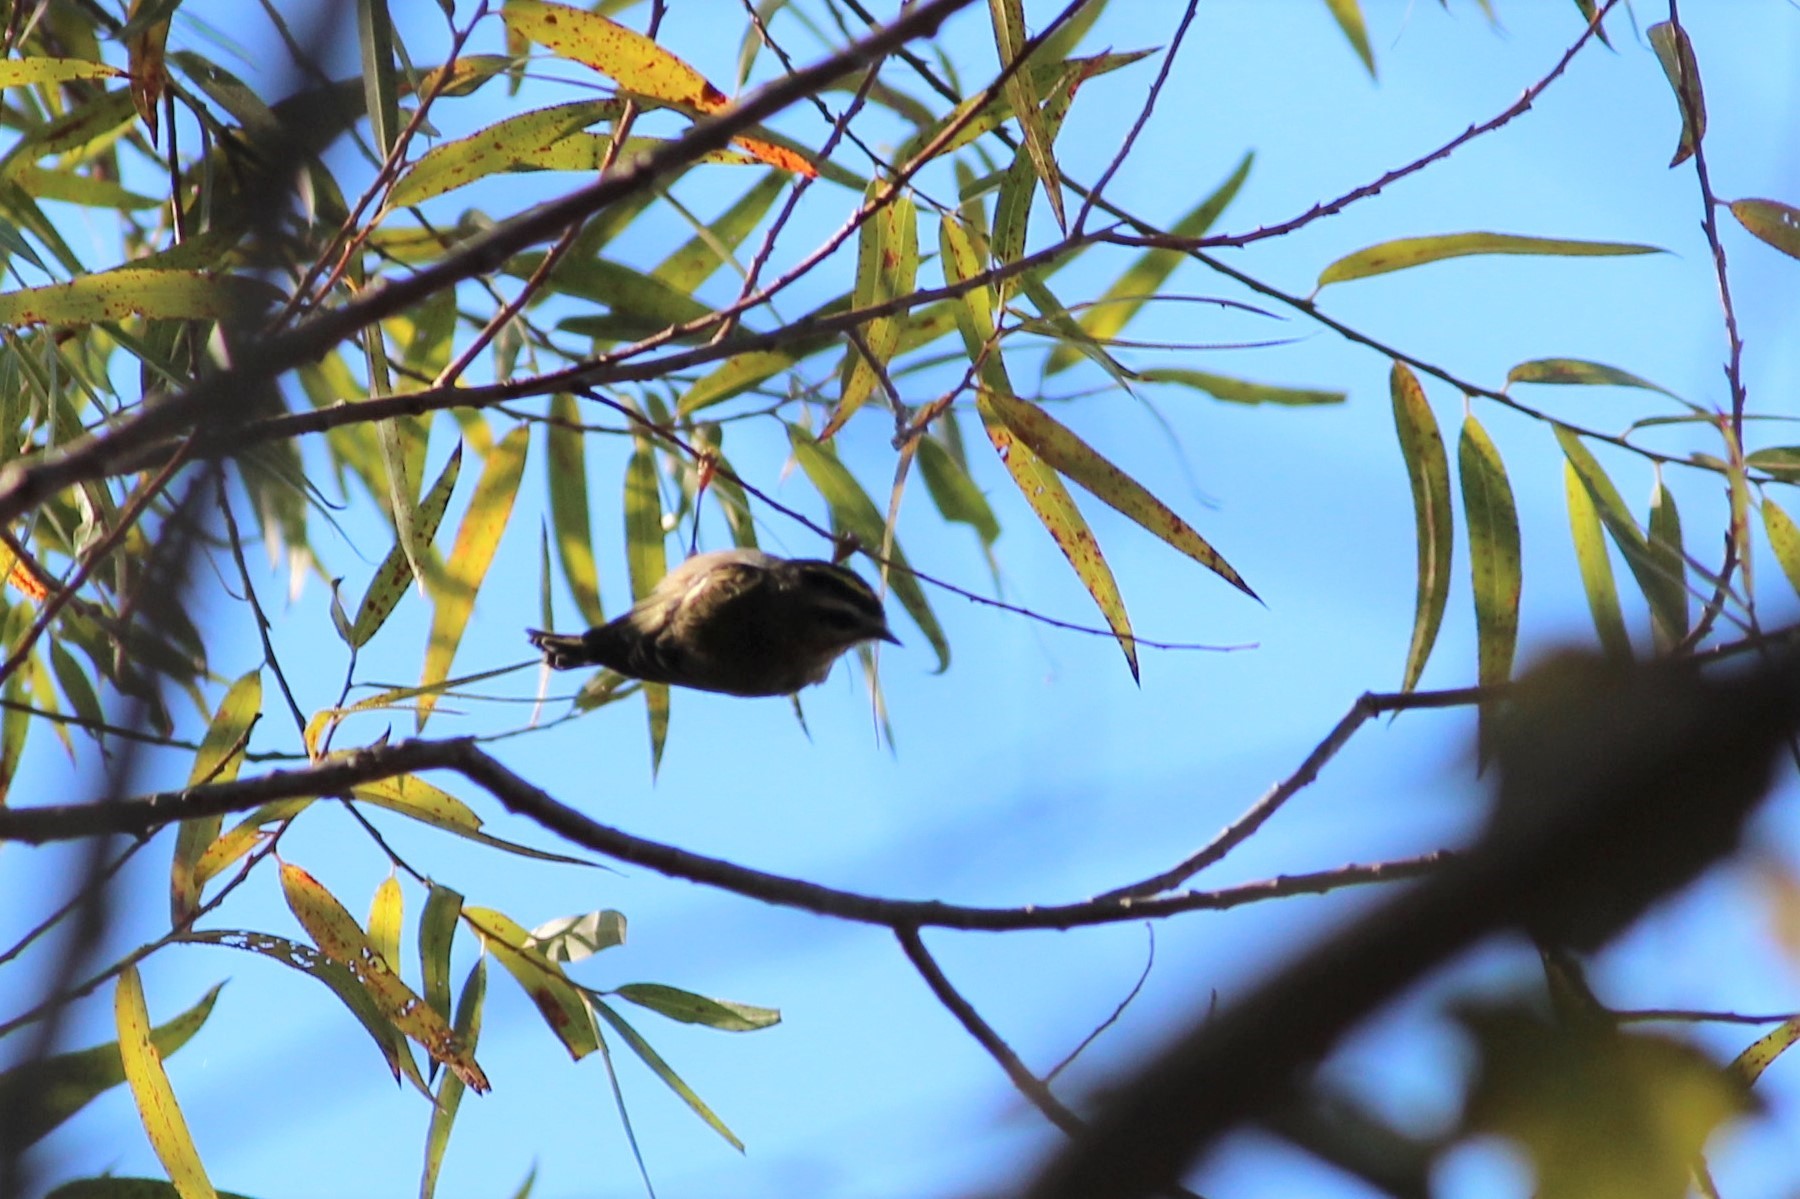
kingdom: Animalia
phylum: Chordata
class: Aves
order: Passeriformes
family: Regulidae
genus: Regulus
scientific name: Regulus satrapa
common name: Golden-crowned kinglet
